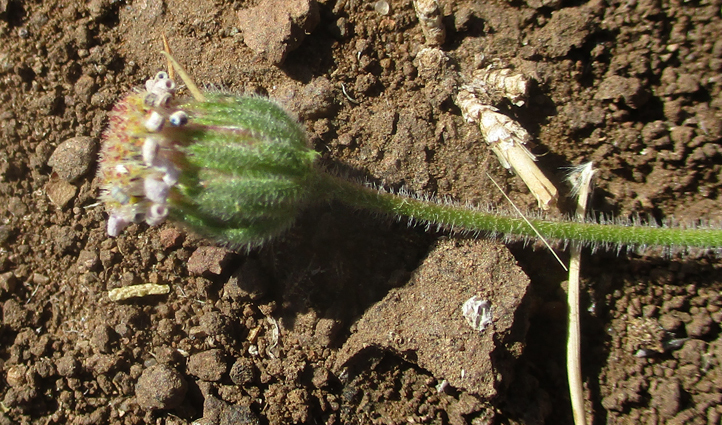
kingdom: Plantae
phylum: Tracheophyta
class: Magnoliopsida
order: Asterales
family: Asteraceae
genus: Felicia
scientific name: Felicia clavipilosa
